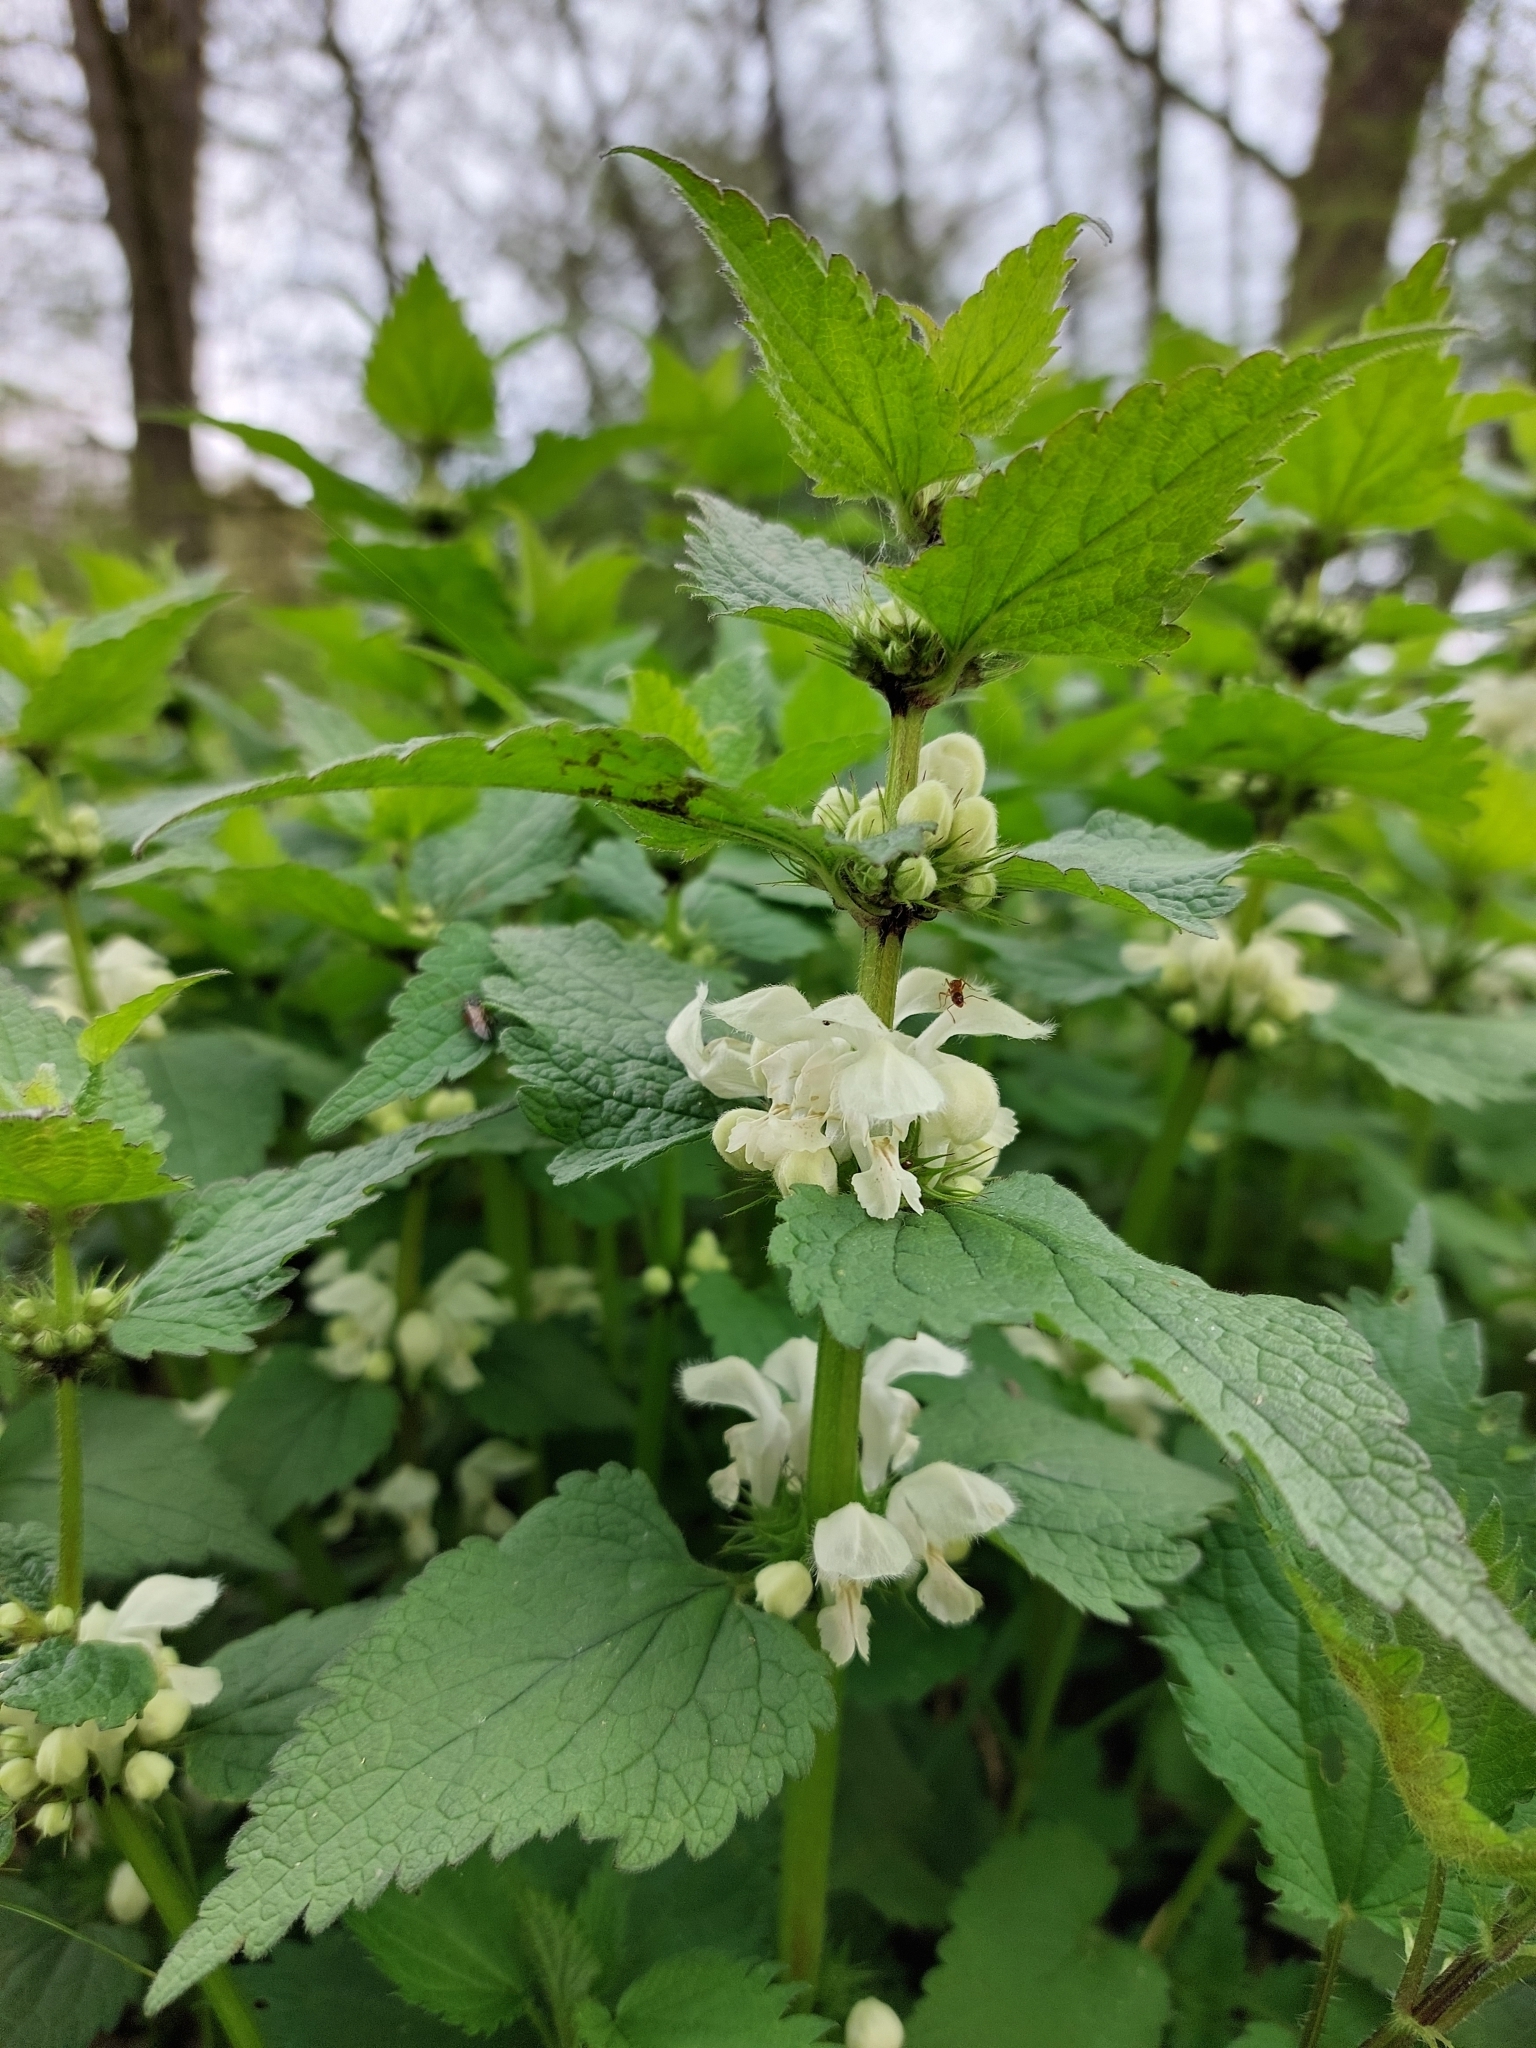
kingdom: Plantae
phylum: Tracheophyta
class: Magnoliopsida
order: Lamiales
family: Lamiaceae
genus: Lamium
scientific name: Lamium album
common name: White dead-nettle
